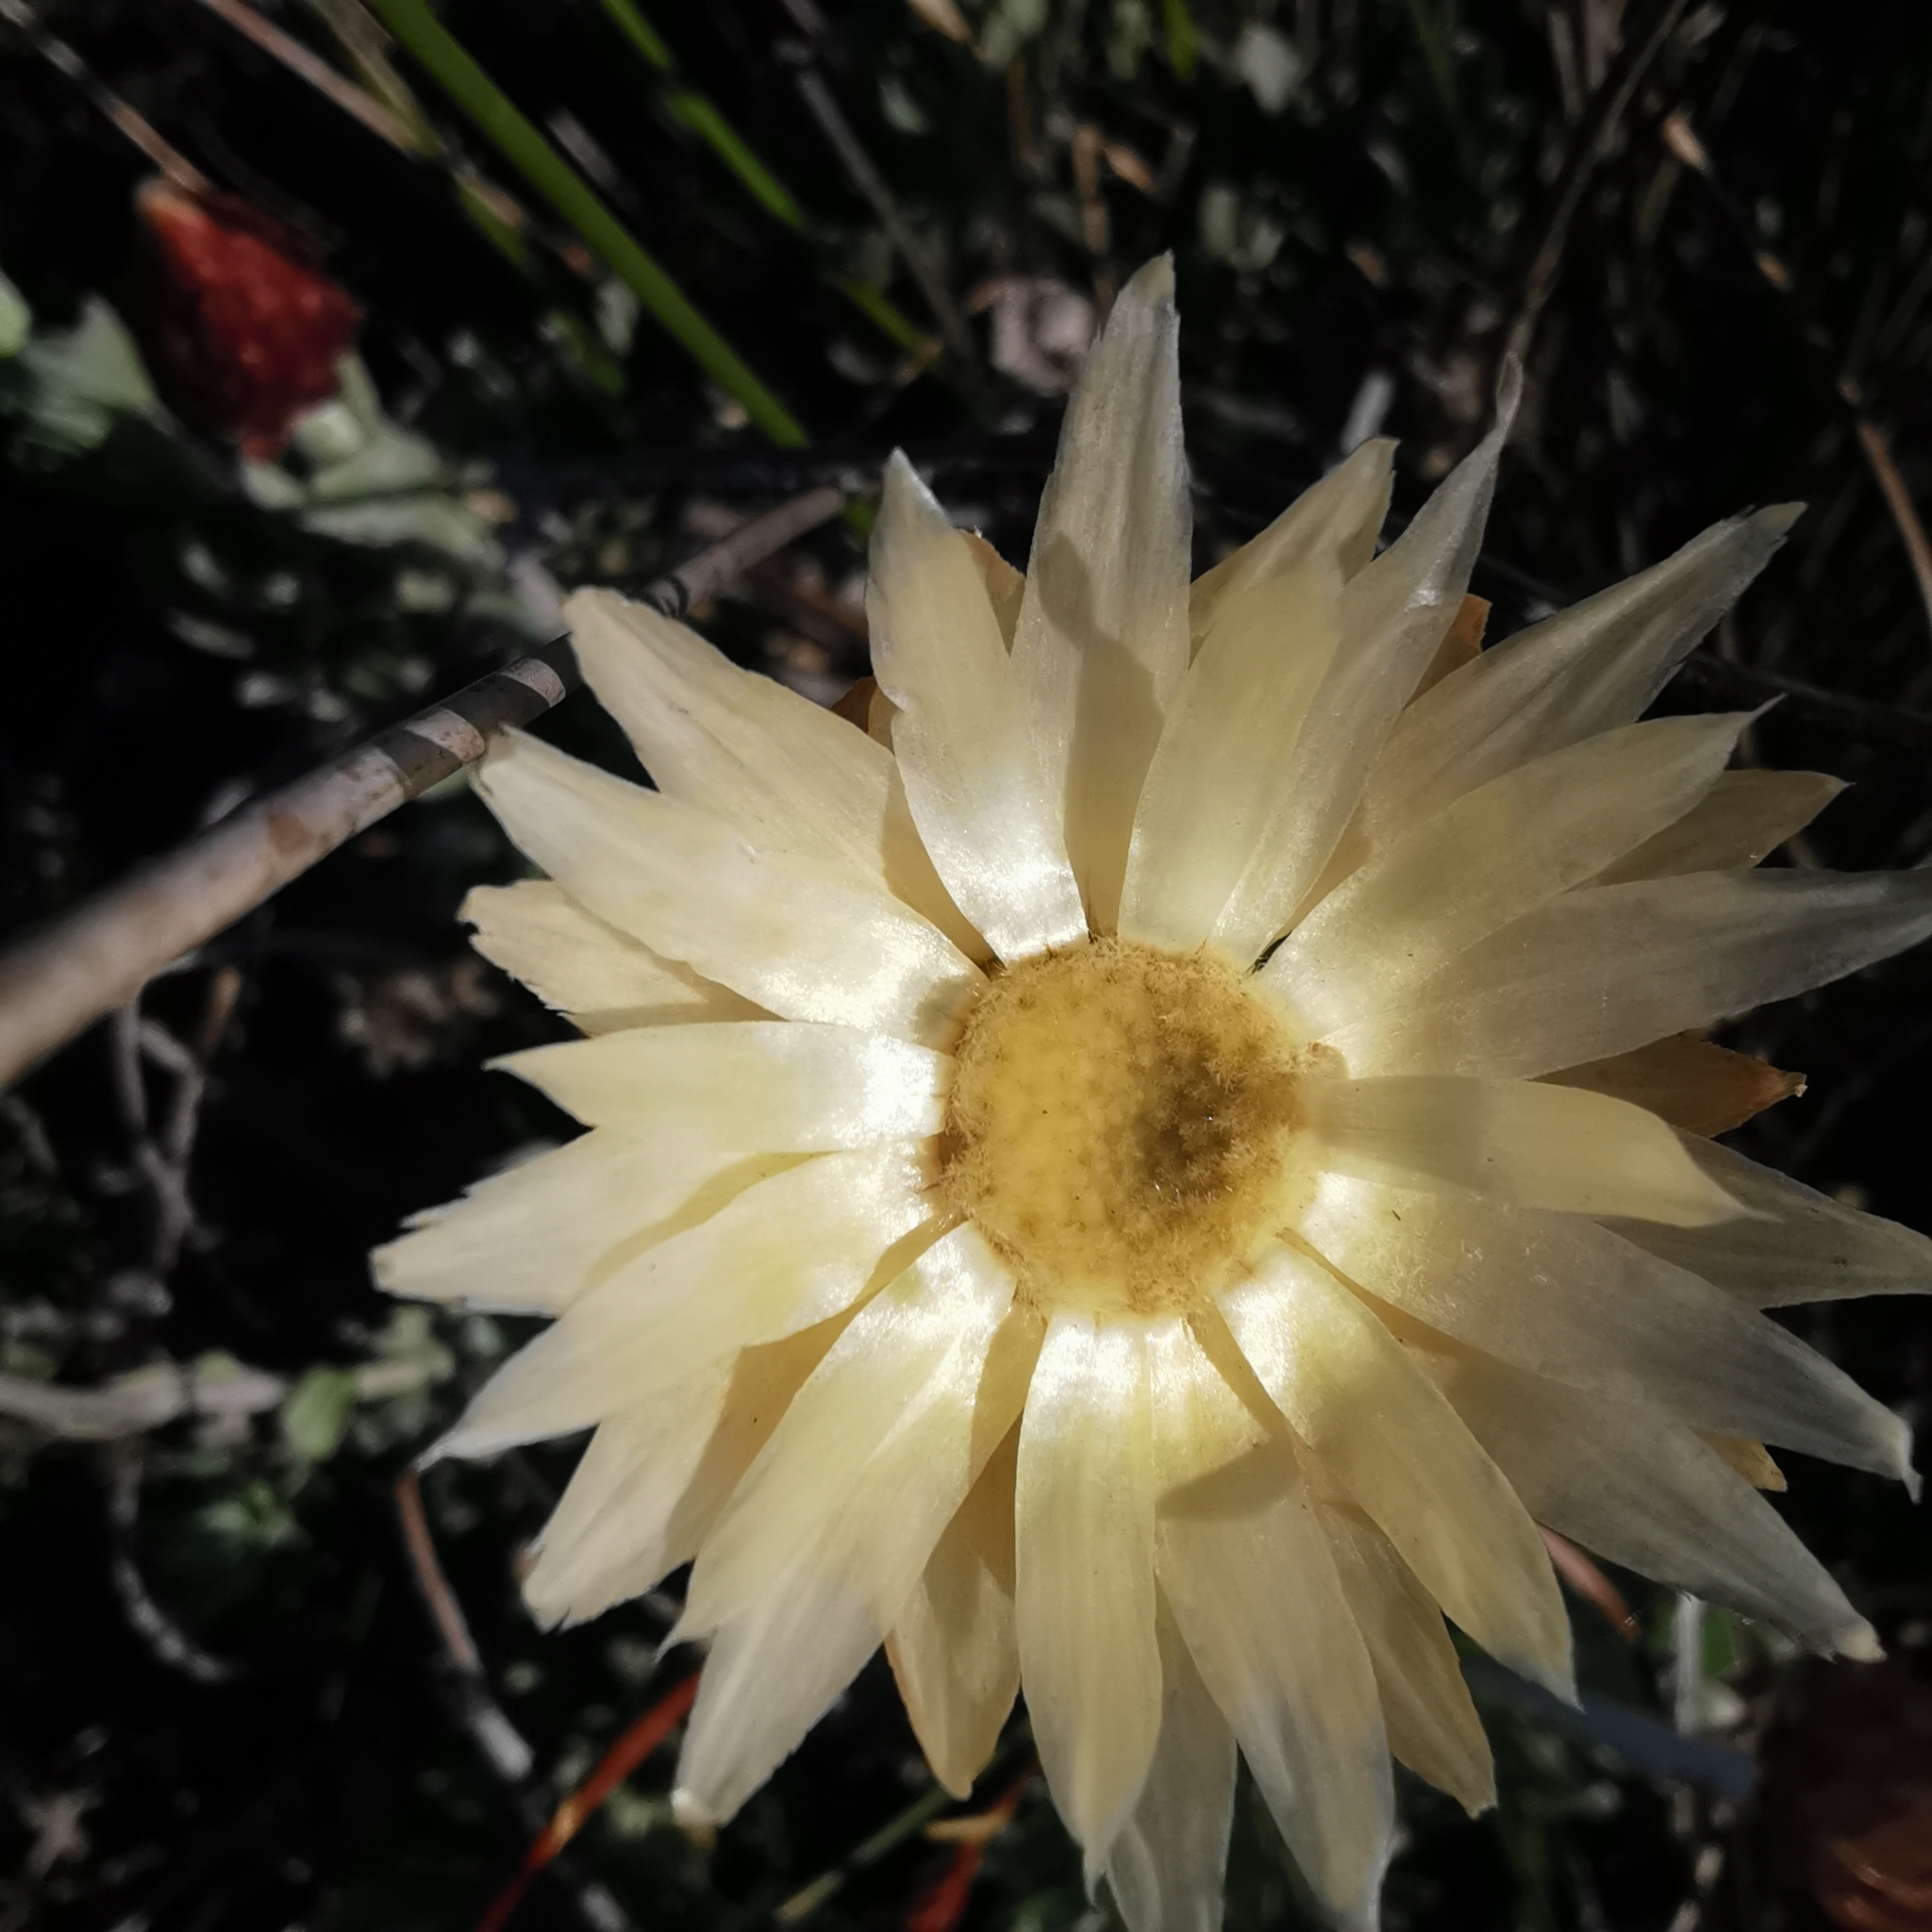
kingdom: Plantae
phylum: Tracheophyta
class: Magnoliopsida
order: Asterales
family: Asteraceae
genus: Syncarpha
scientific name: Syncarpha speciosissima
